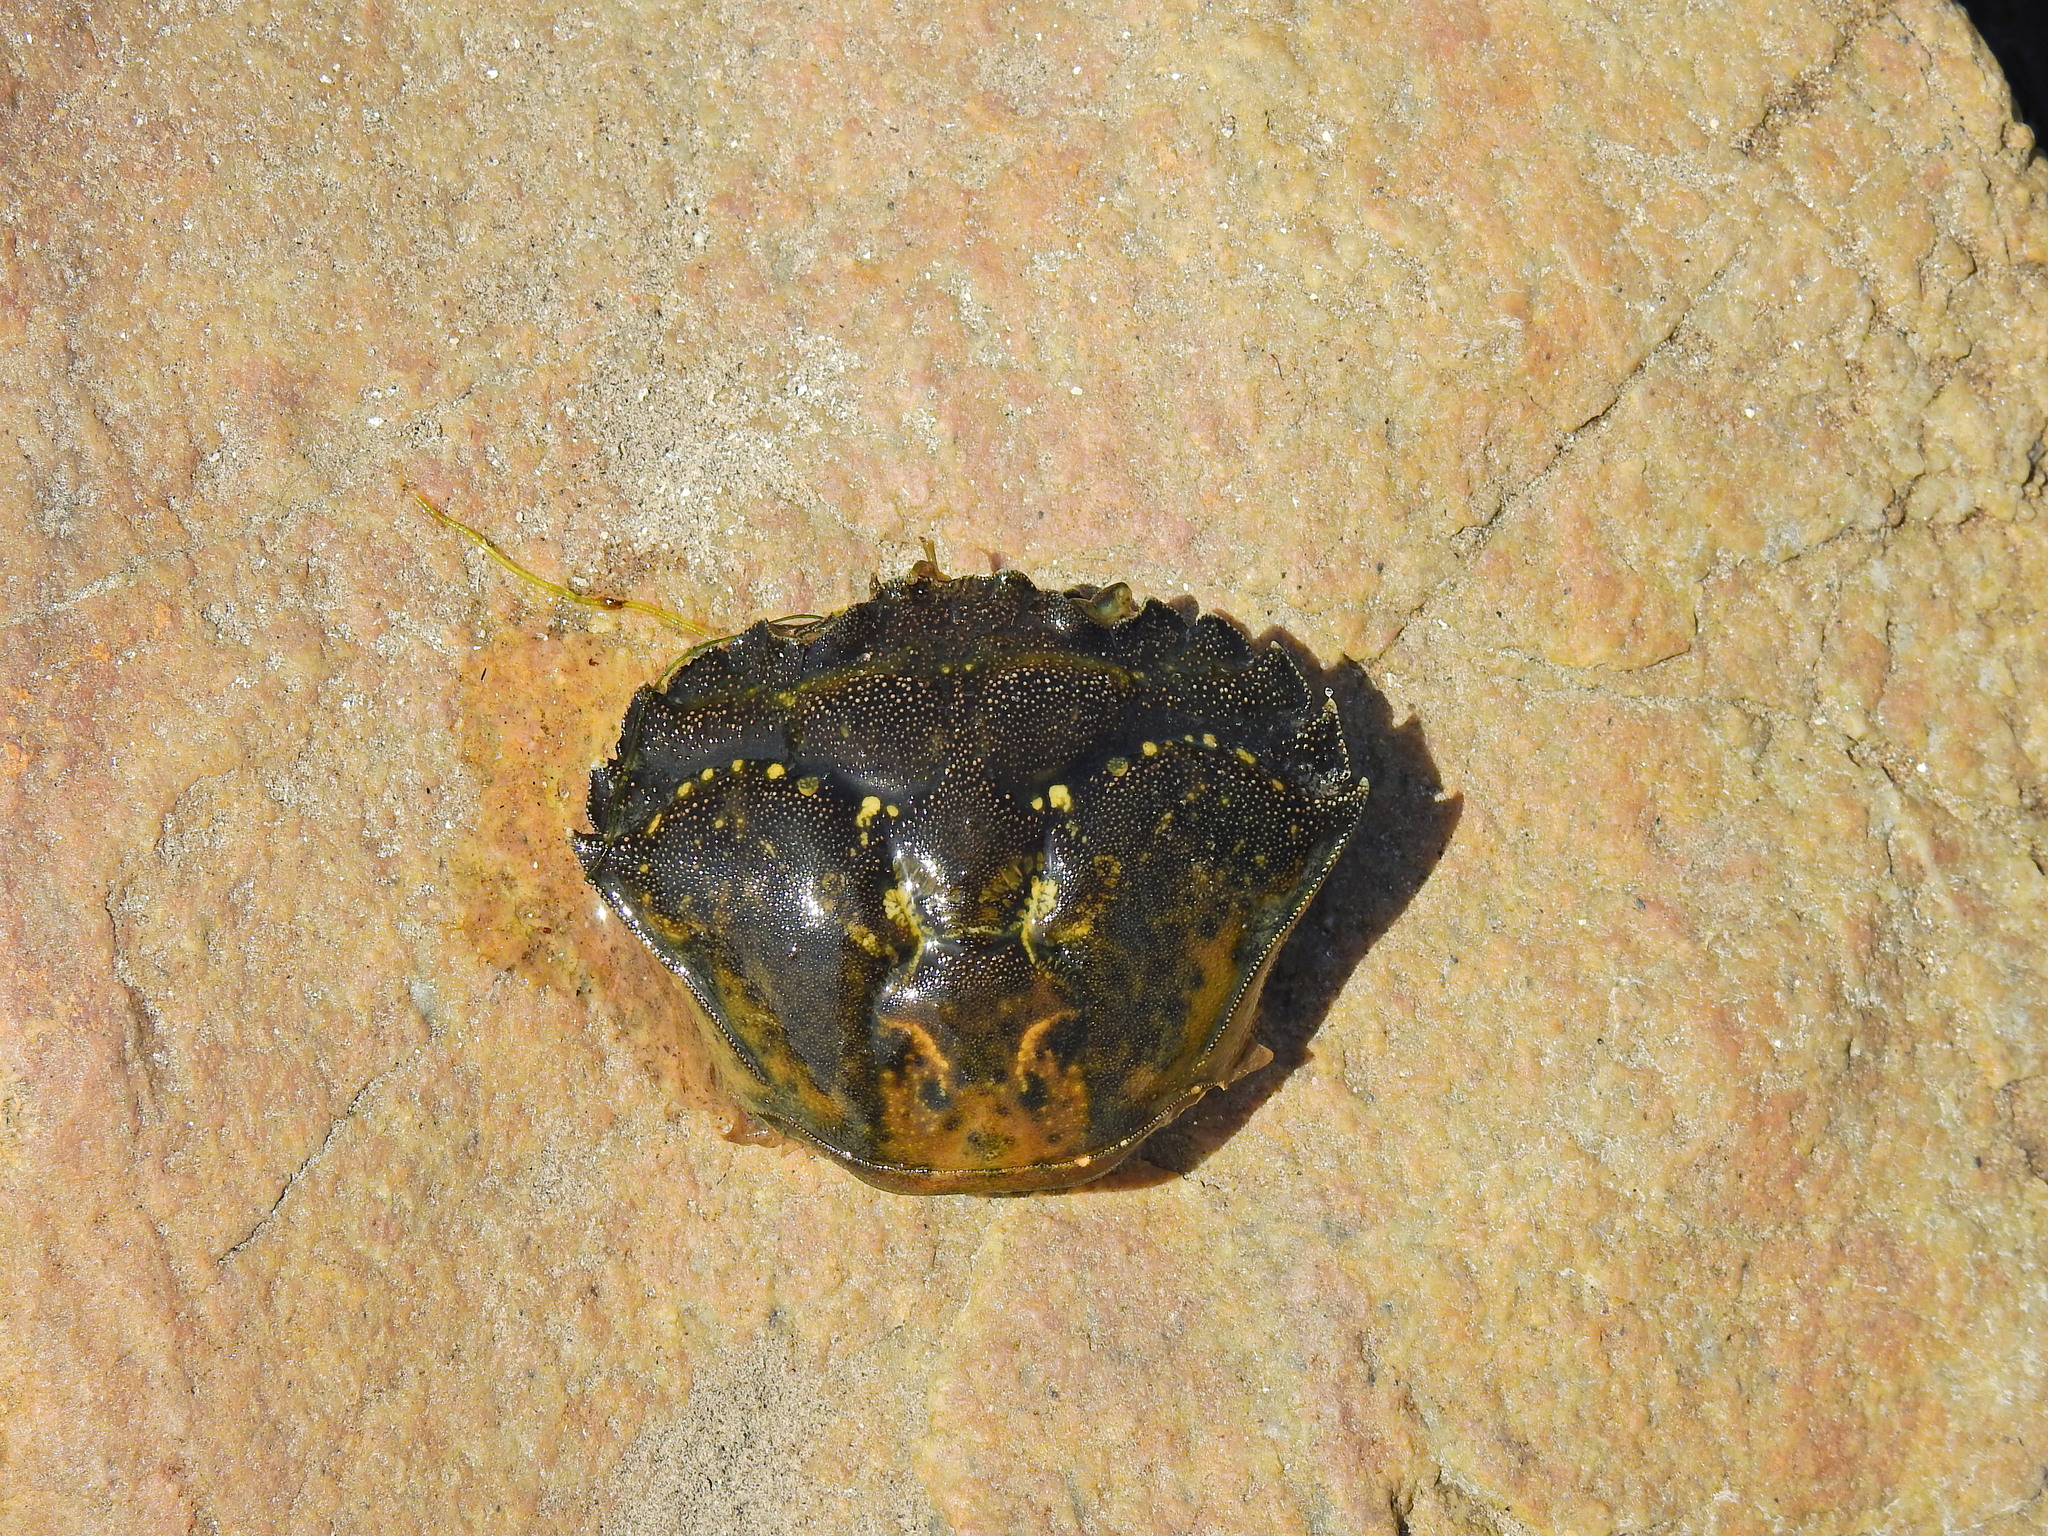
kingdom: Animalia
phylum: Arthropoda
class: Malacostraca
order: Decapoda
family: Carcinidae
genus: Carcinus
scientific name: Carcinus maenas
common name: European green crab
